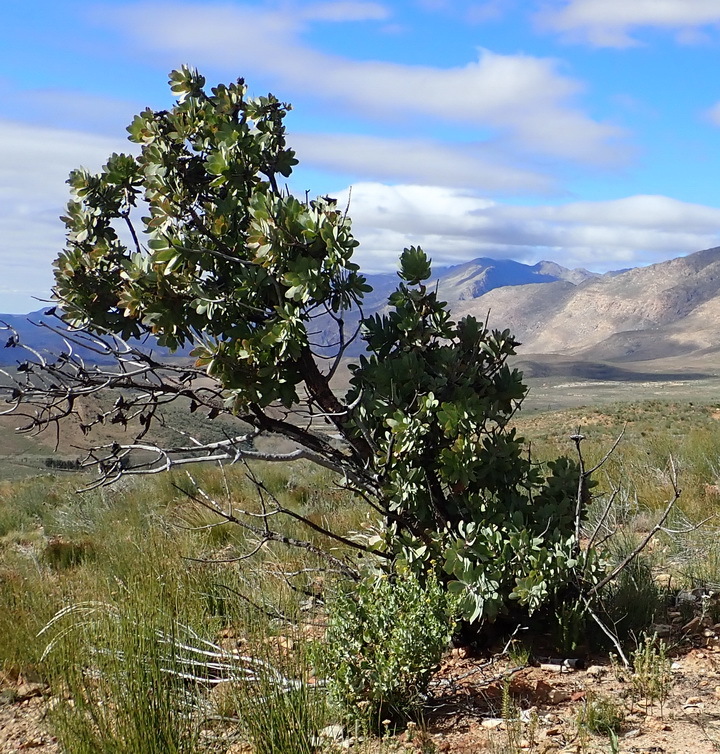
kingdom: Plantae
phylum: Tracheophyta
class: Magnoliopsida
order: Proteales
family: Proteaceae
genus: Protea
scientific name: Protea nitida
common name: Tree protea
